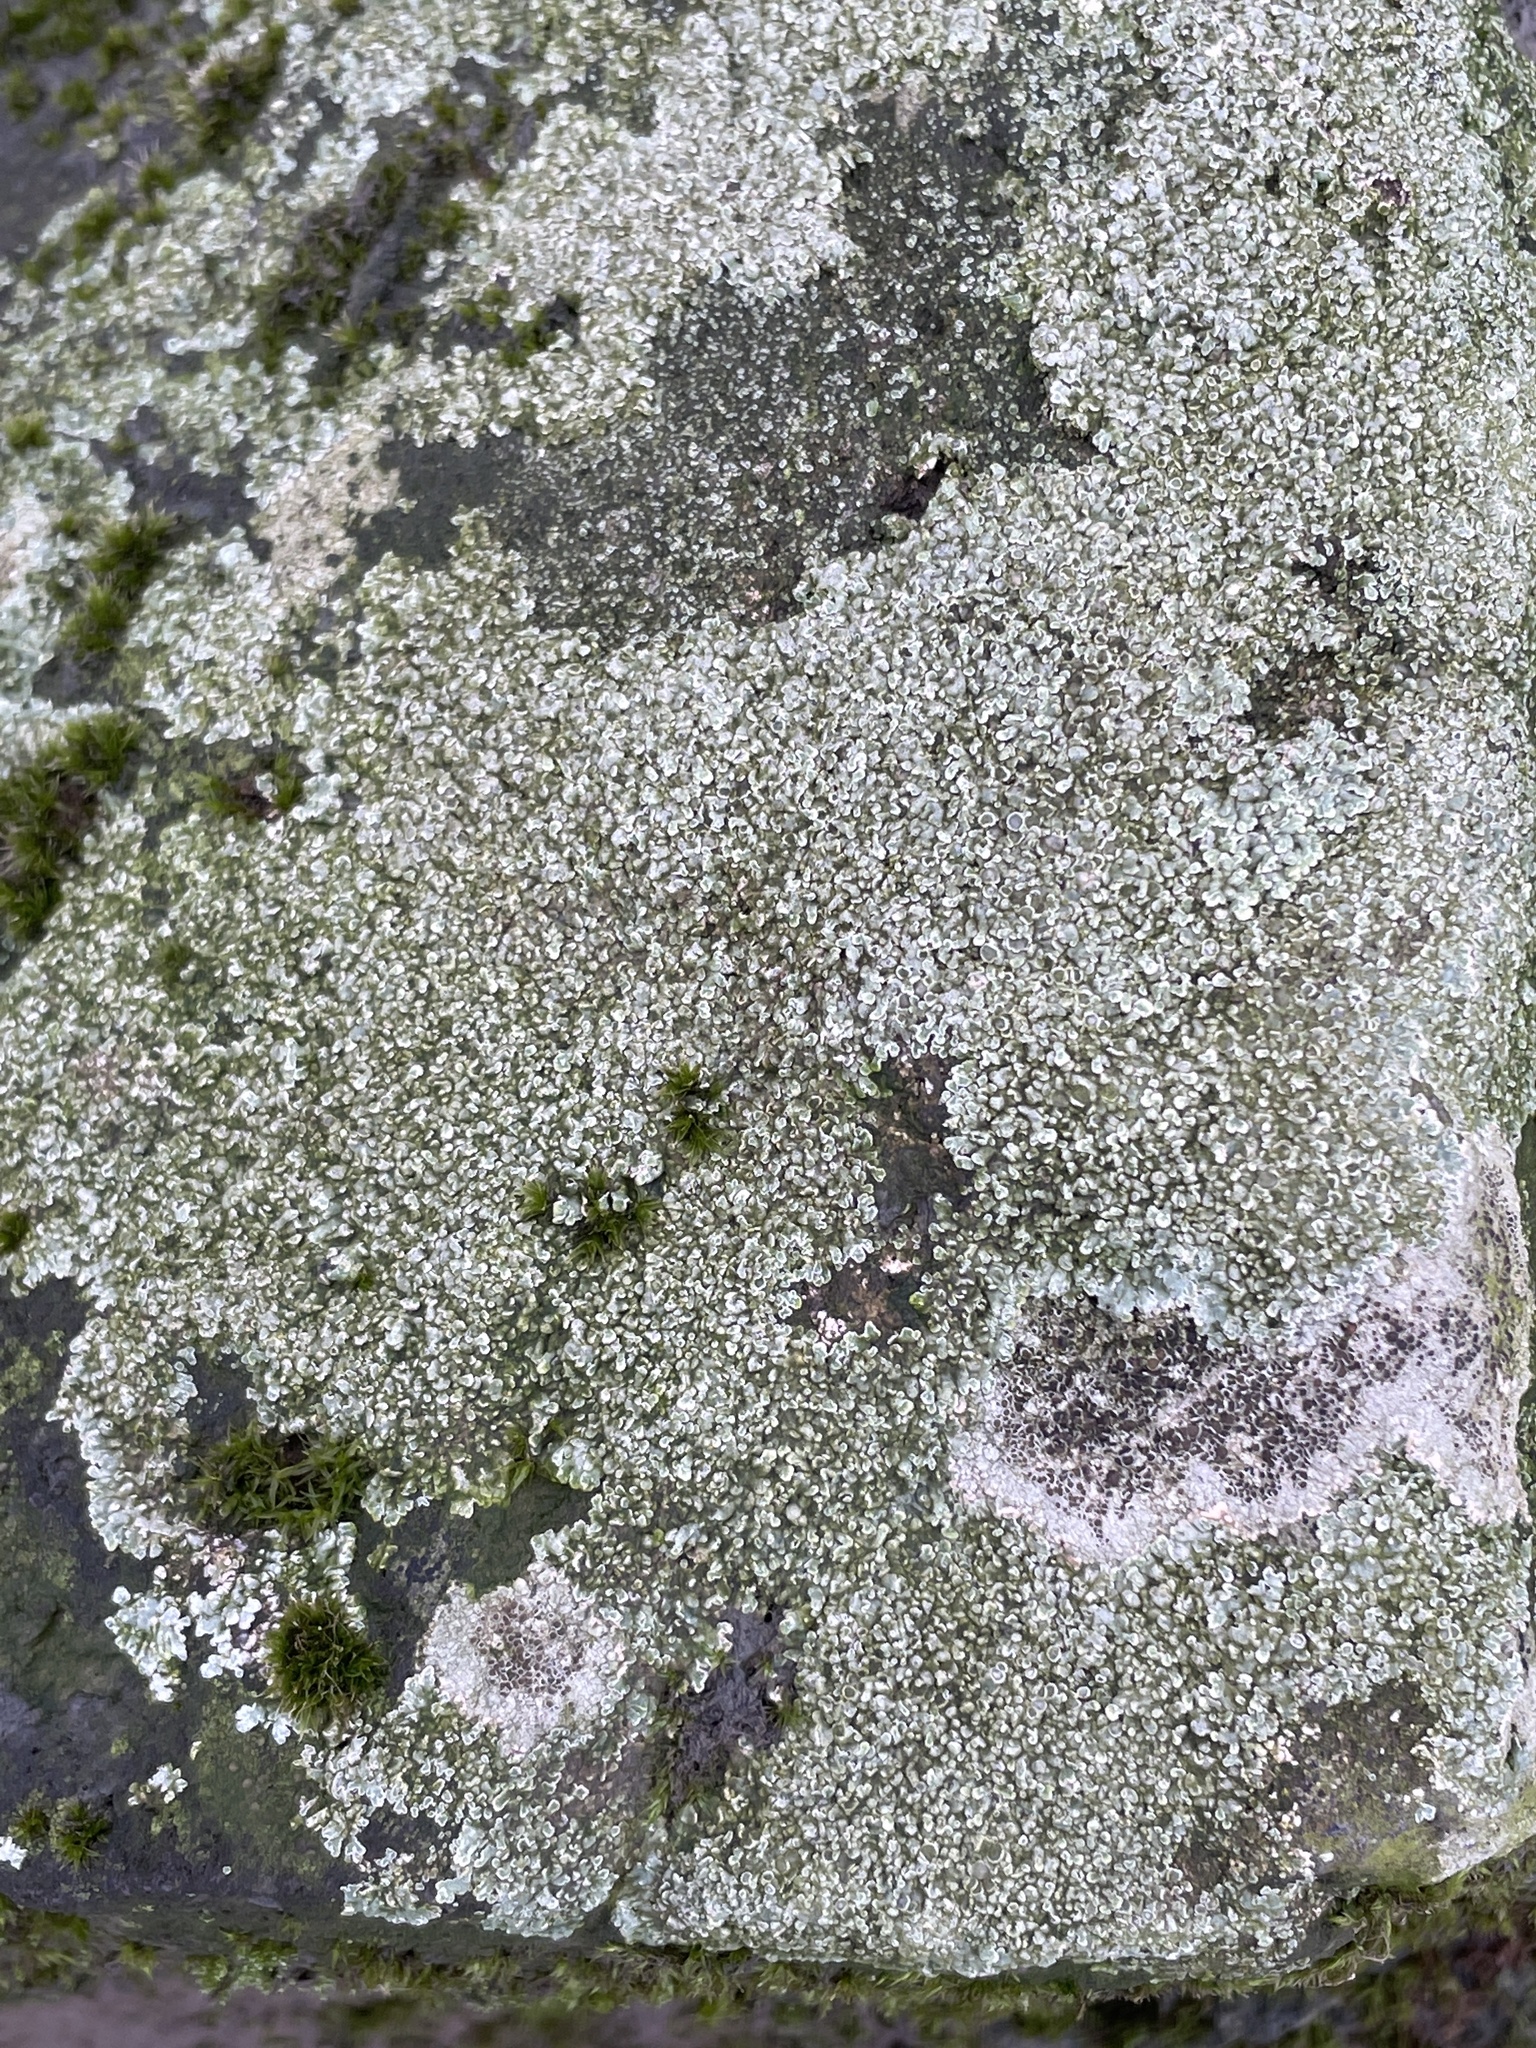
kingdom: Fungi
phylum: Ascomycota
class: Lecanoromycetes
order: Lecanorales
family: Lecanoraceae
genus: Protoparmeliopsis
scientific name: Protoparmeliopsis muralis
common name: Stonewall rim lichen
